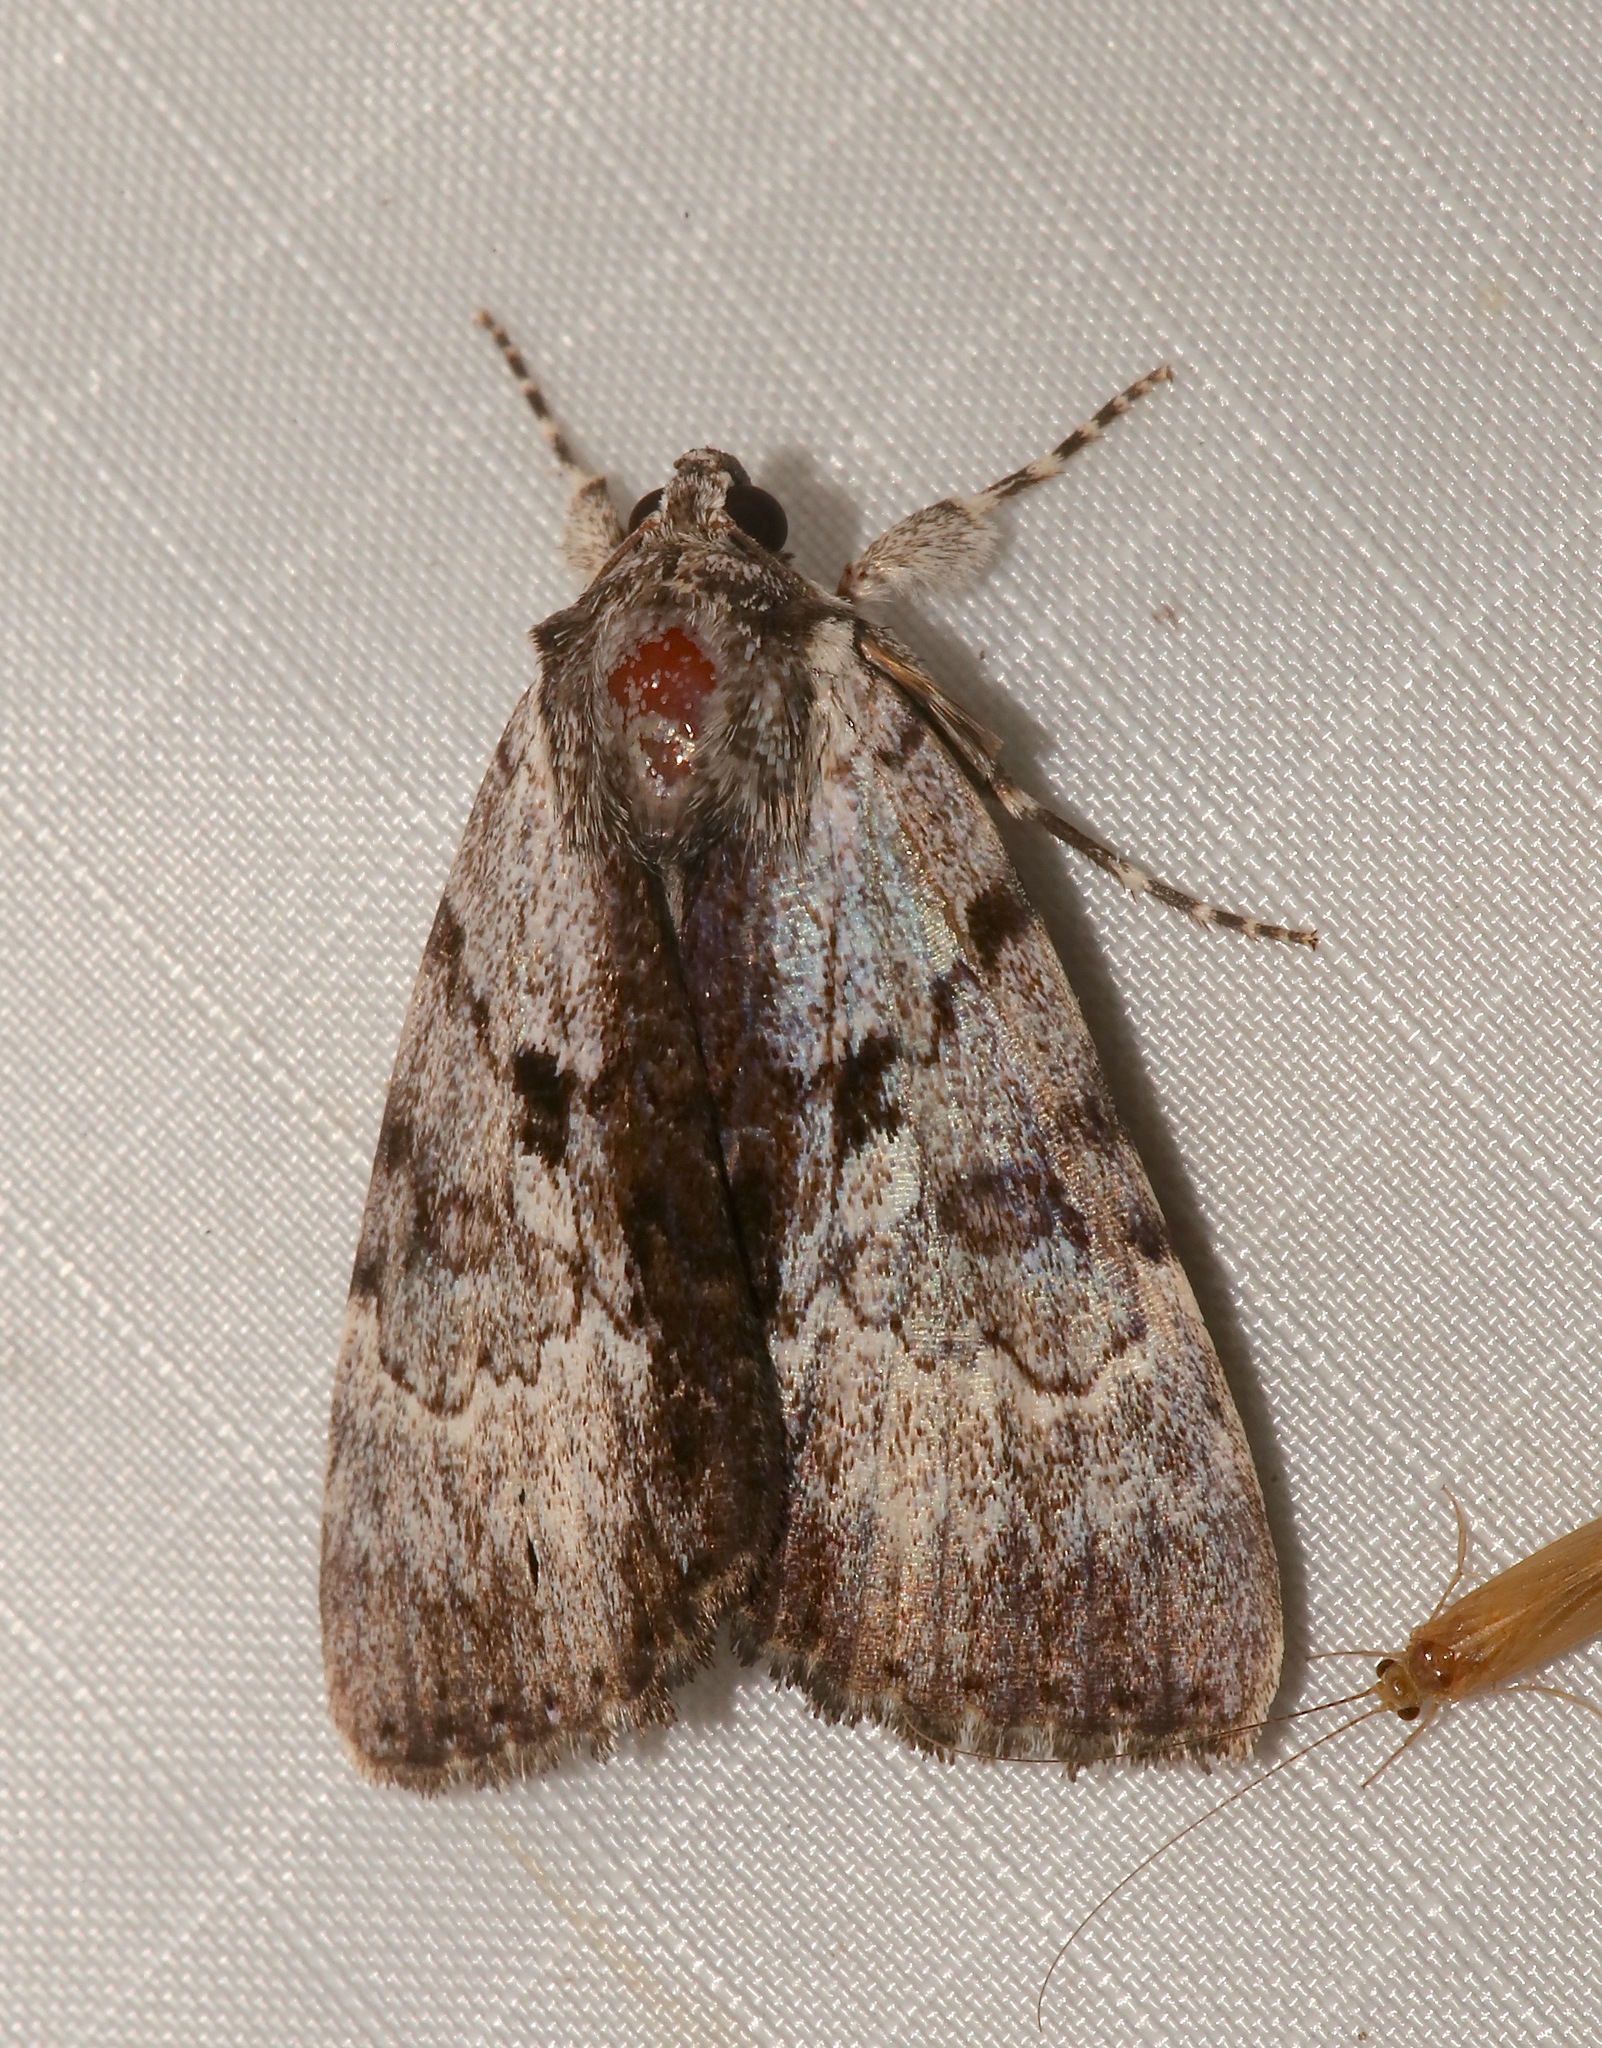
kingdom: Animalia
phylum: Arthropoda
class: Insecta
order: Lepidoptera
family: Erebidae
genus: Catocala
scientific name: Catocala andromedae
